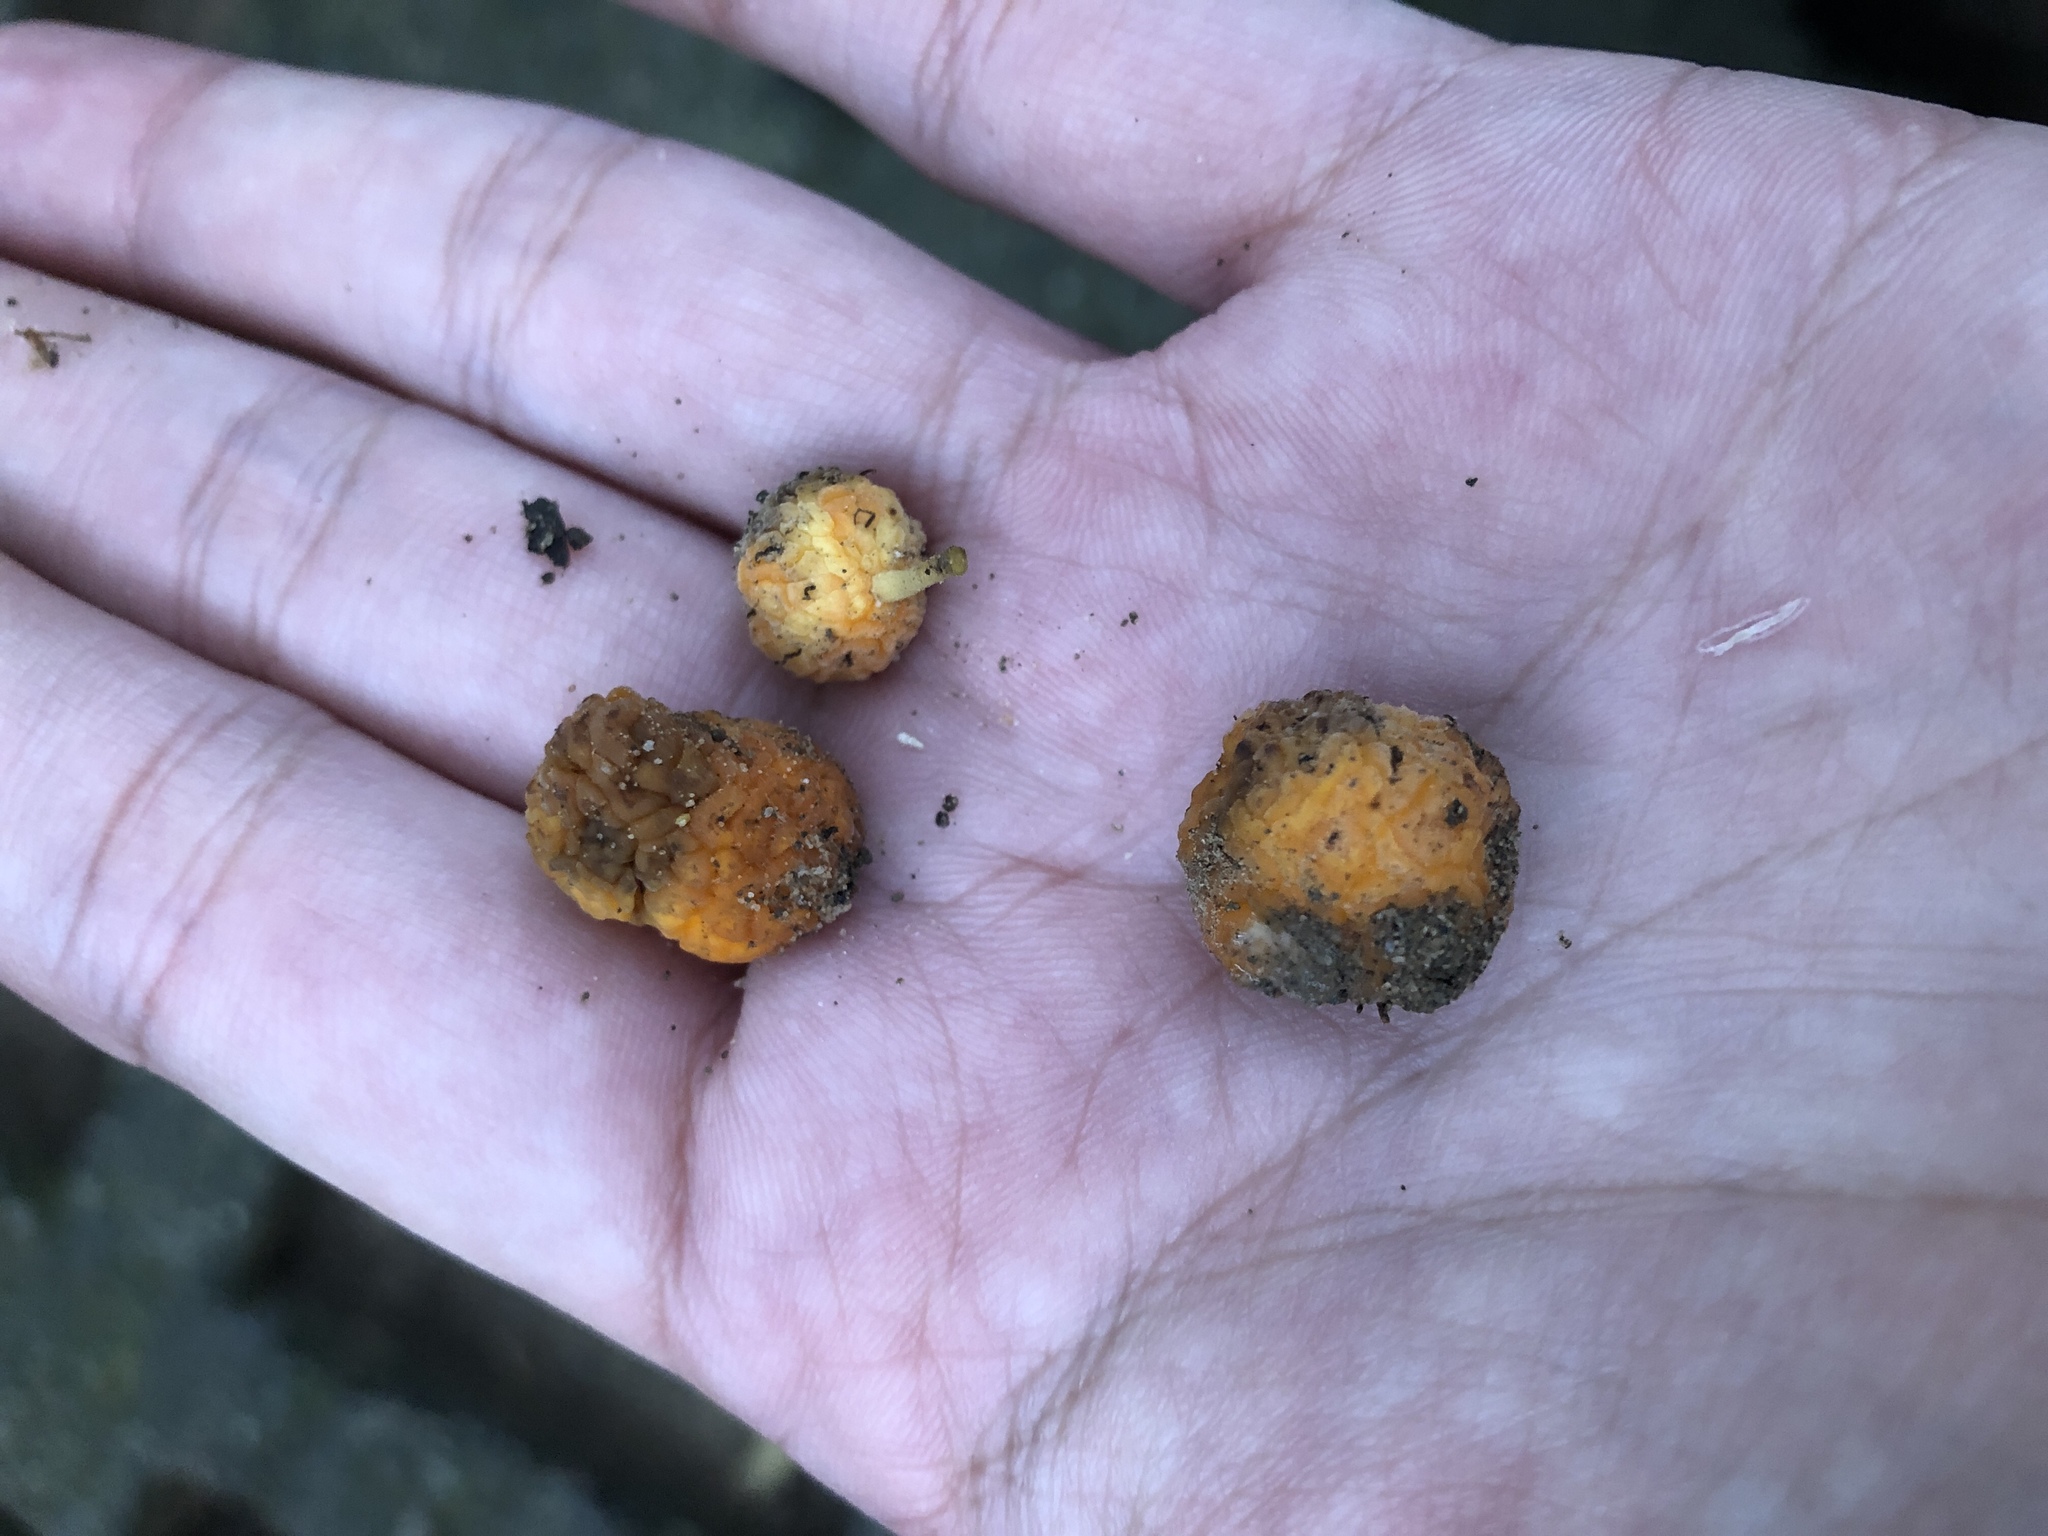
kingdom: Plantae
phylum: Tracheophyta
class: Magnoliopsida
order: Rosales
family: Moraceae
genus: Maclura
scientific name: Maclura cochinchinensis
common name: Cockspurthorn
